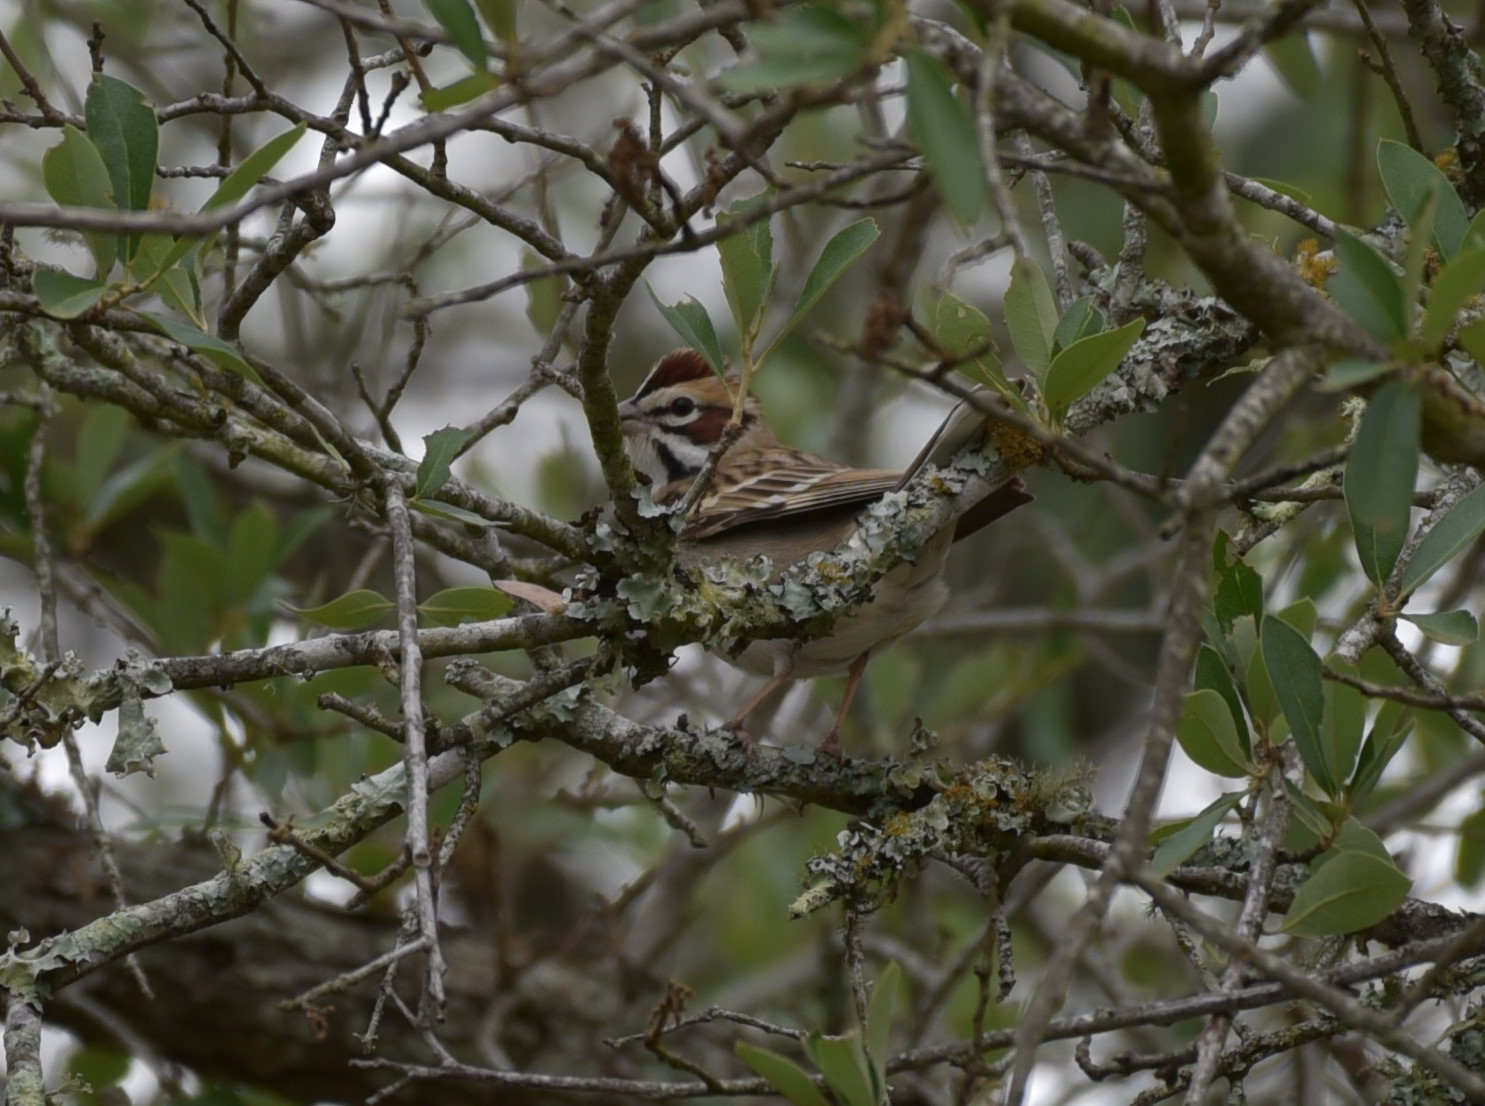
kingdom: Animalia
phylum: Chordata
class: Aves
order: Passeriformes
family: Passerellidae
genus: Chondestes
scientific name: Chondestes grammacus
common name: Lark sparrow
